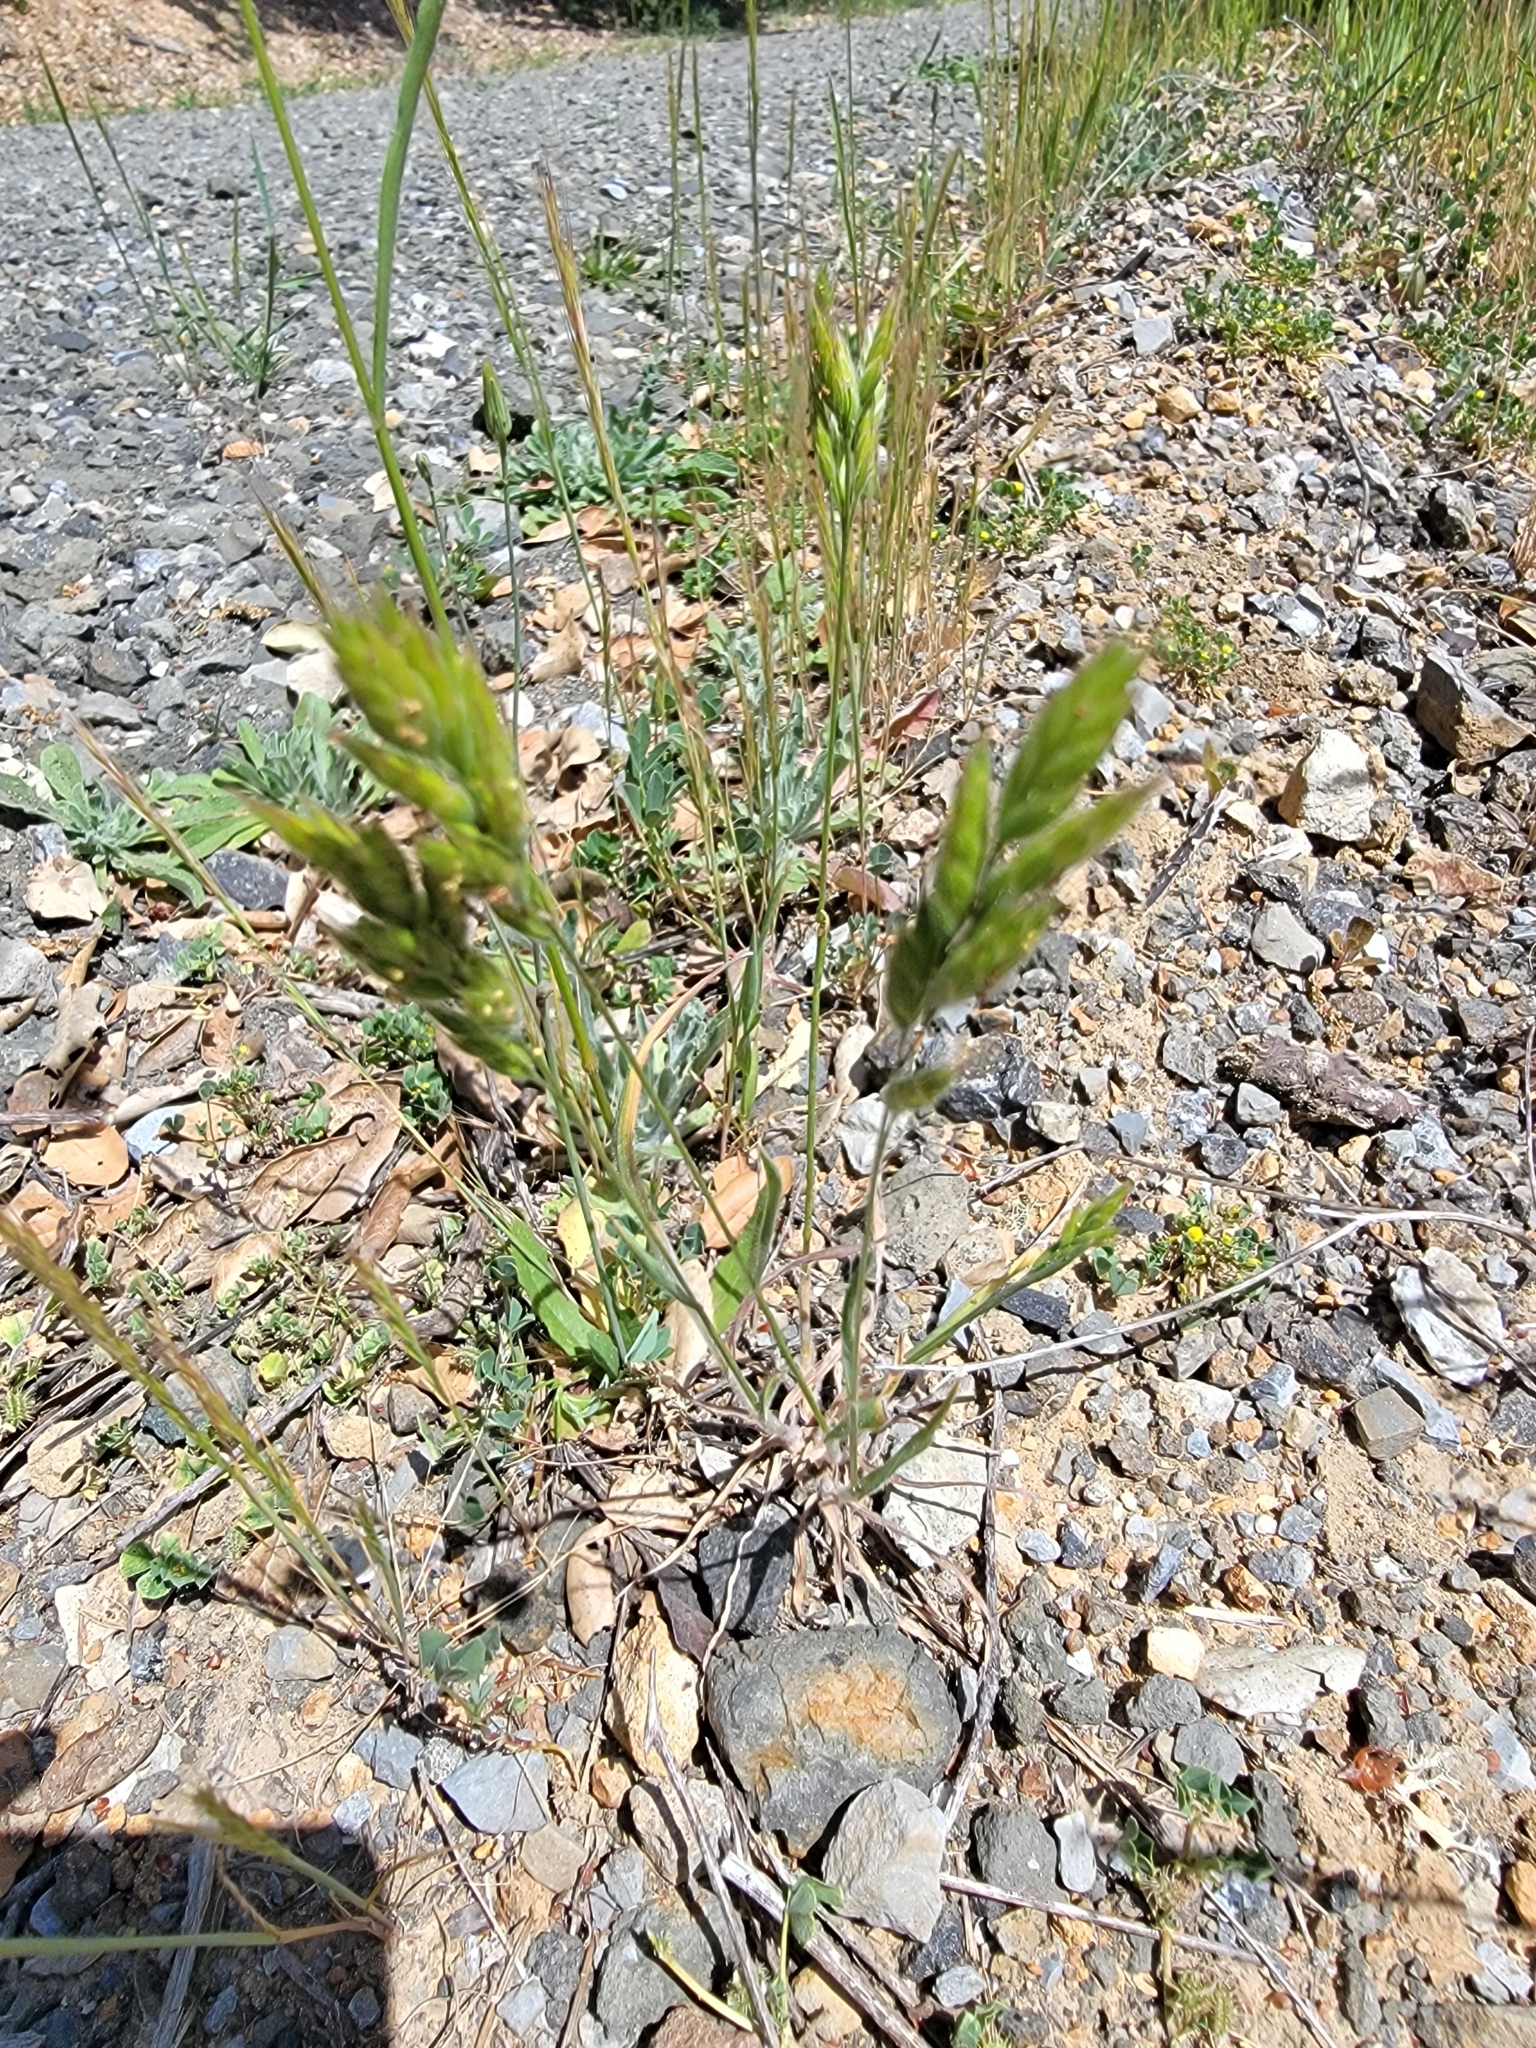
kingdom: Plantae
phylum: Tracheophyta
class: Liliopsida
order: Poales
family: Poaceae
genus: Bromus
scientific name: Bromus hordeaceus
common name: Soft brome
